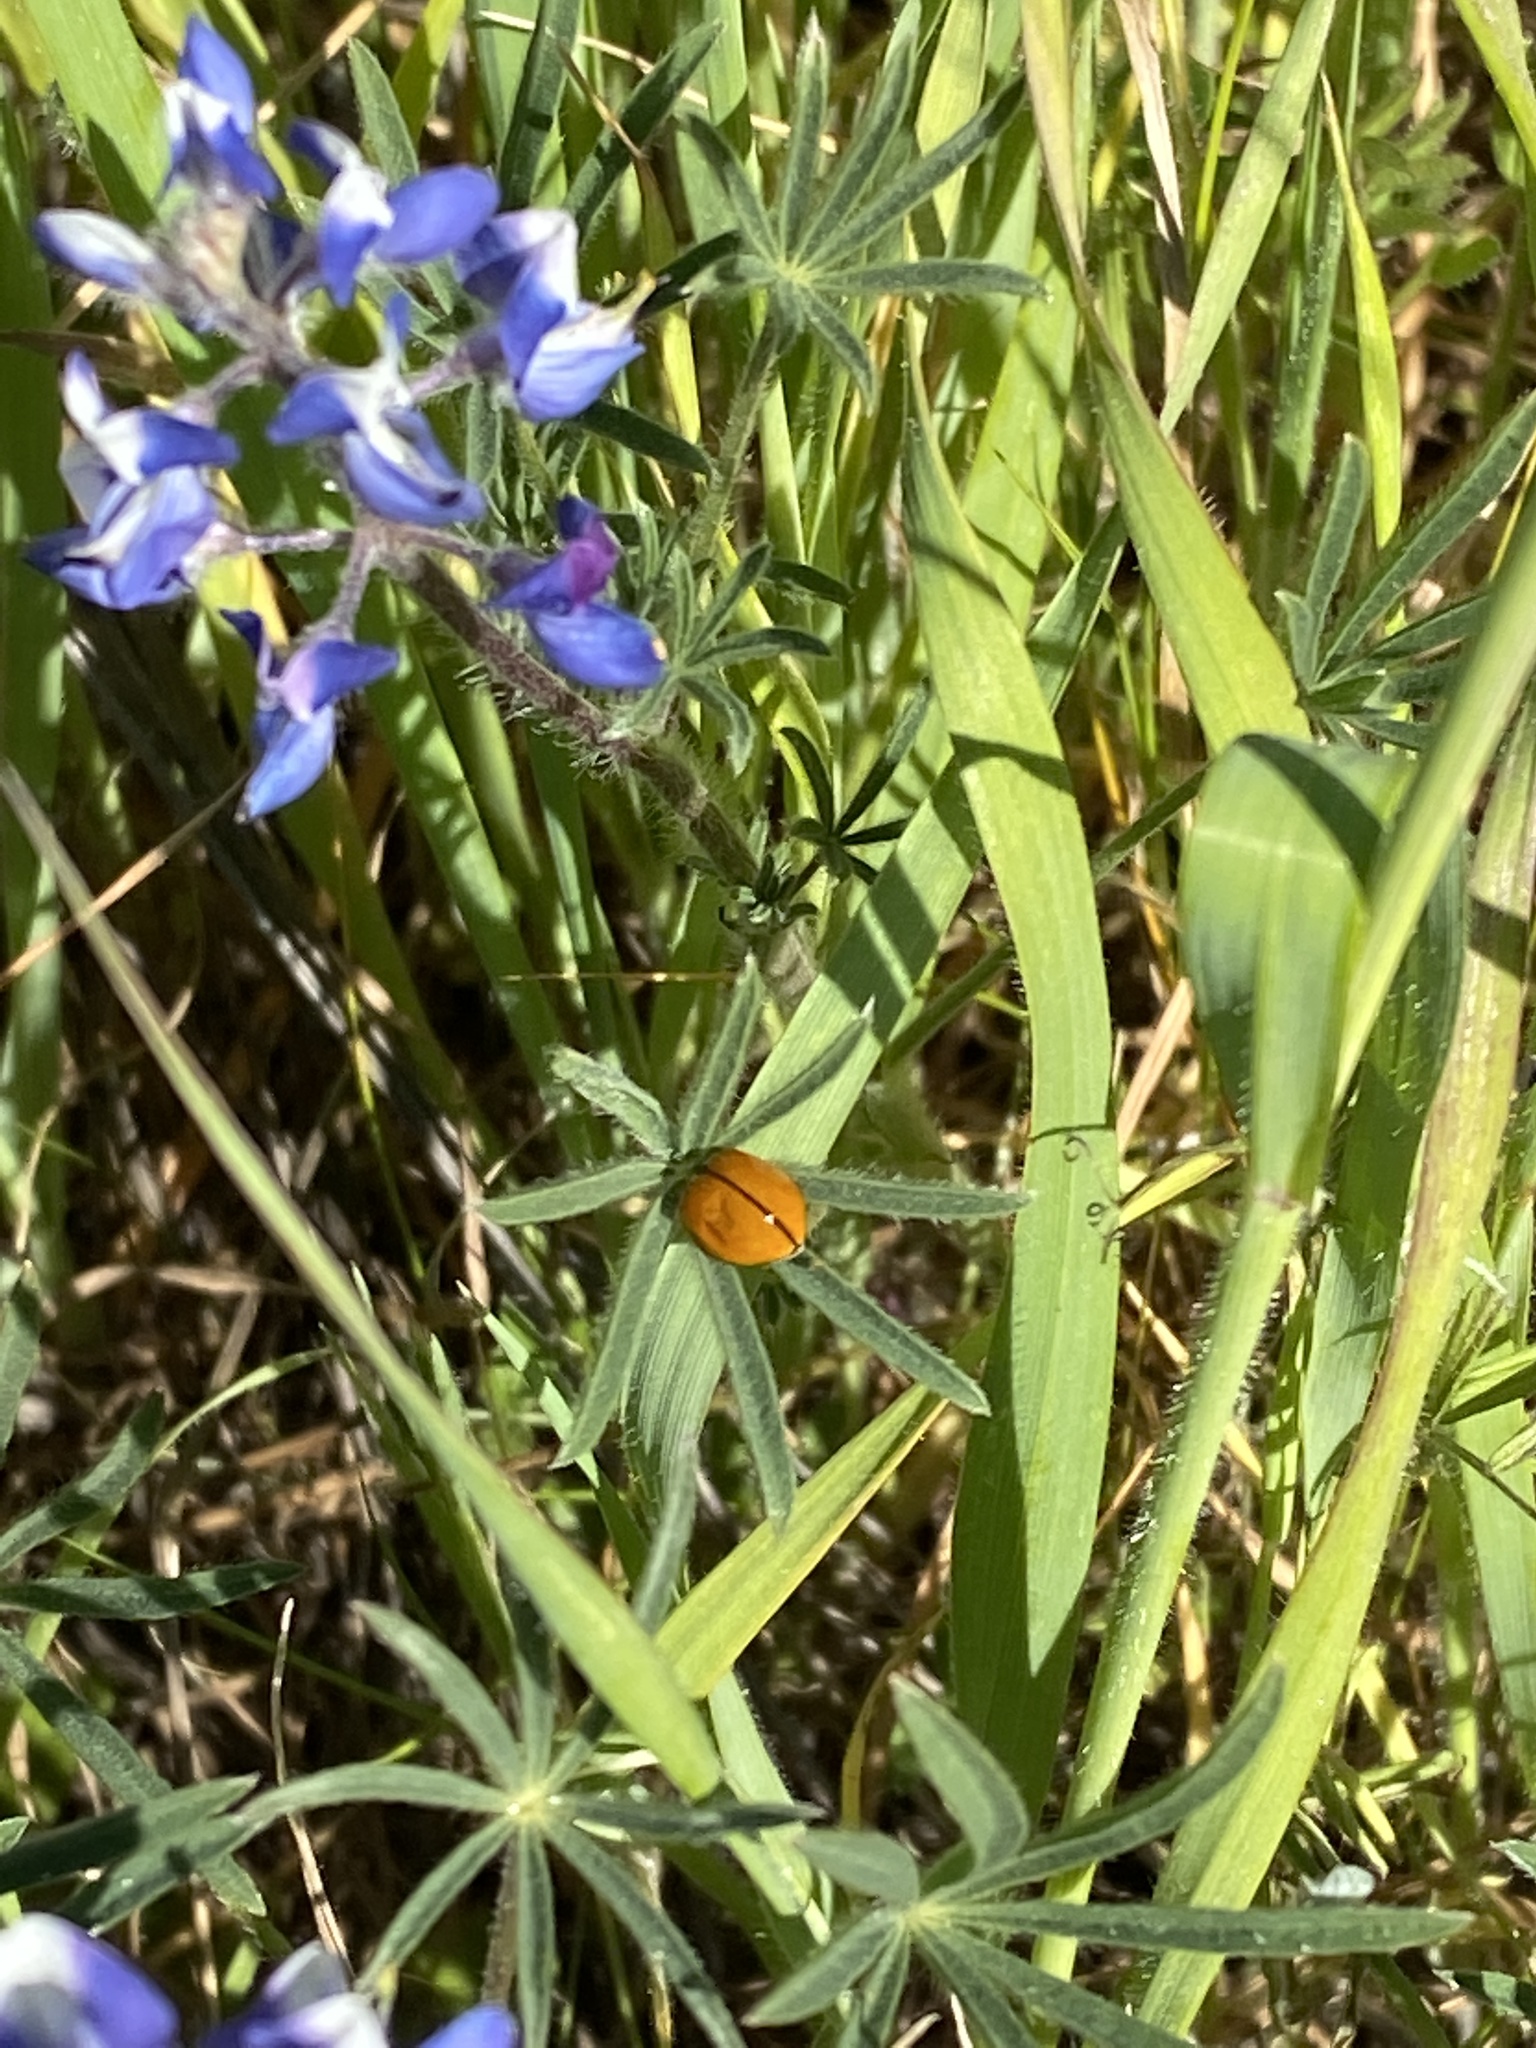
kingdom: Animalia
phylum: Arthropoda
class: Insecta
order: Coleoptera
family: Coccinellidae
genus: Coccinella
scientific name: Coccinella californica
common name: Lady beetle
